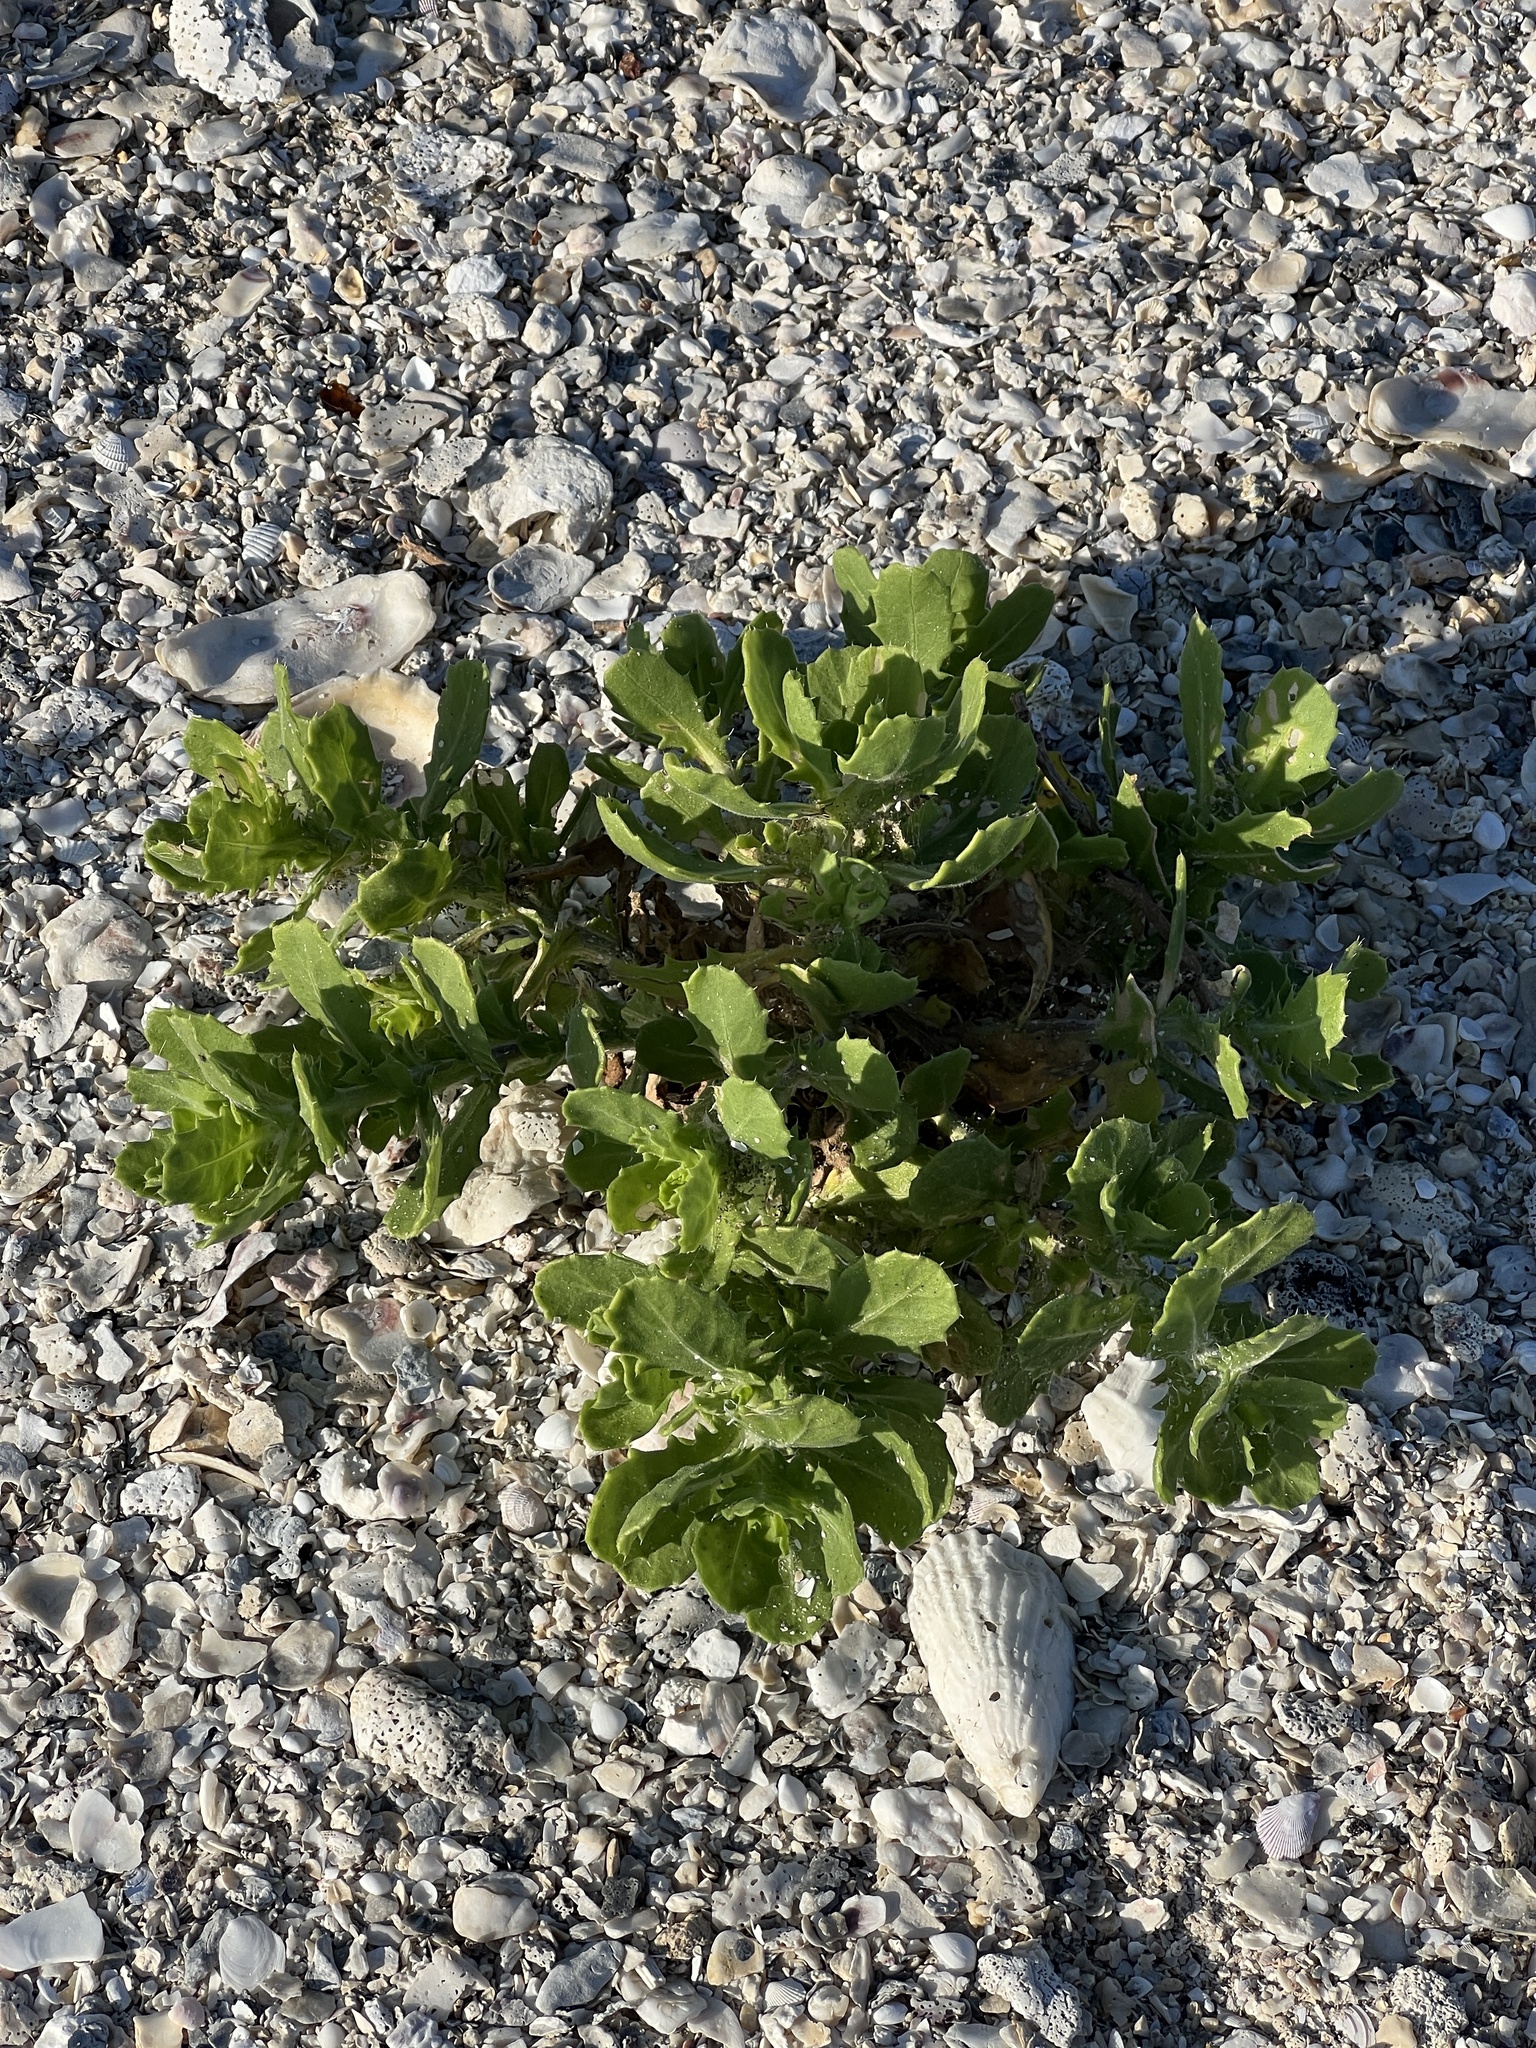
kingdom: Plantae
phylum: Tracheophyta
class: Magnoliopsida
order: Asterales
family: Asteraceae
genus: Rayjacksonia
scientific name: Rayjacksonia phyllocephala
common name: Gulf coast camphor daisy
